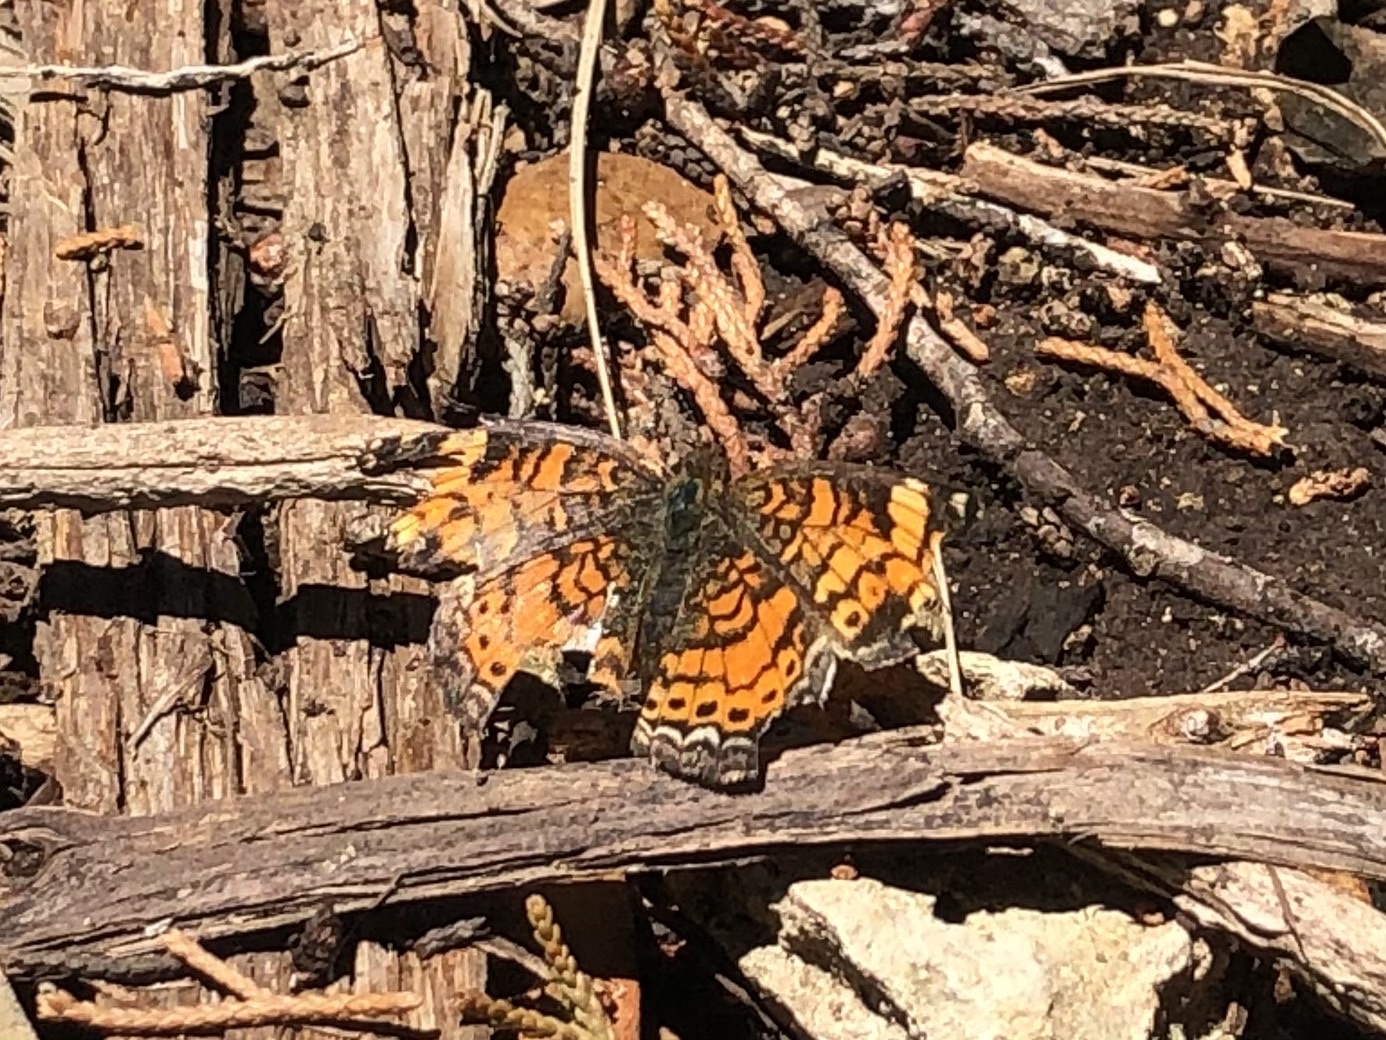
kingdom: Animalia
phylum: Arthropoda
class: Insecta
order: Lepidoptera
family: Nymphalidae
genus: Phyciodes
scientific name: Phyciodes tharos
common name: Pearl crescent
